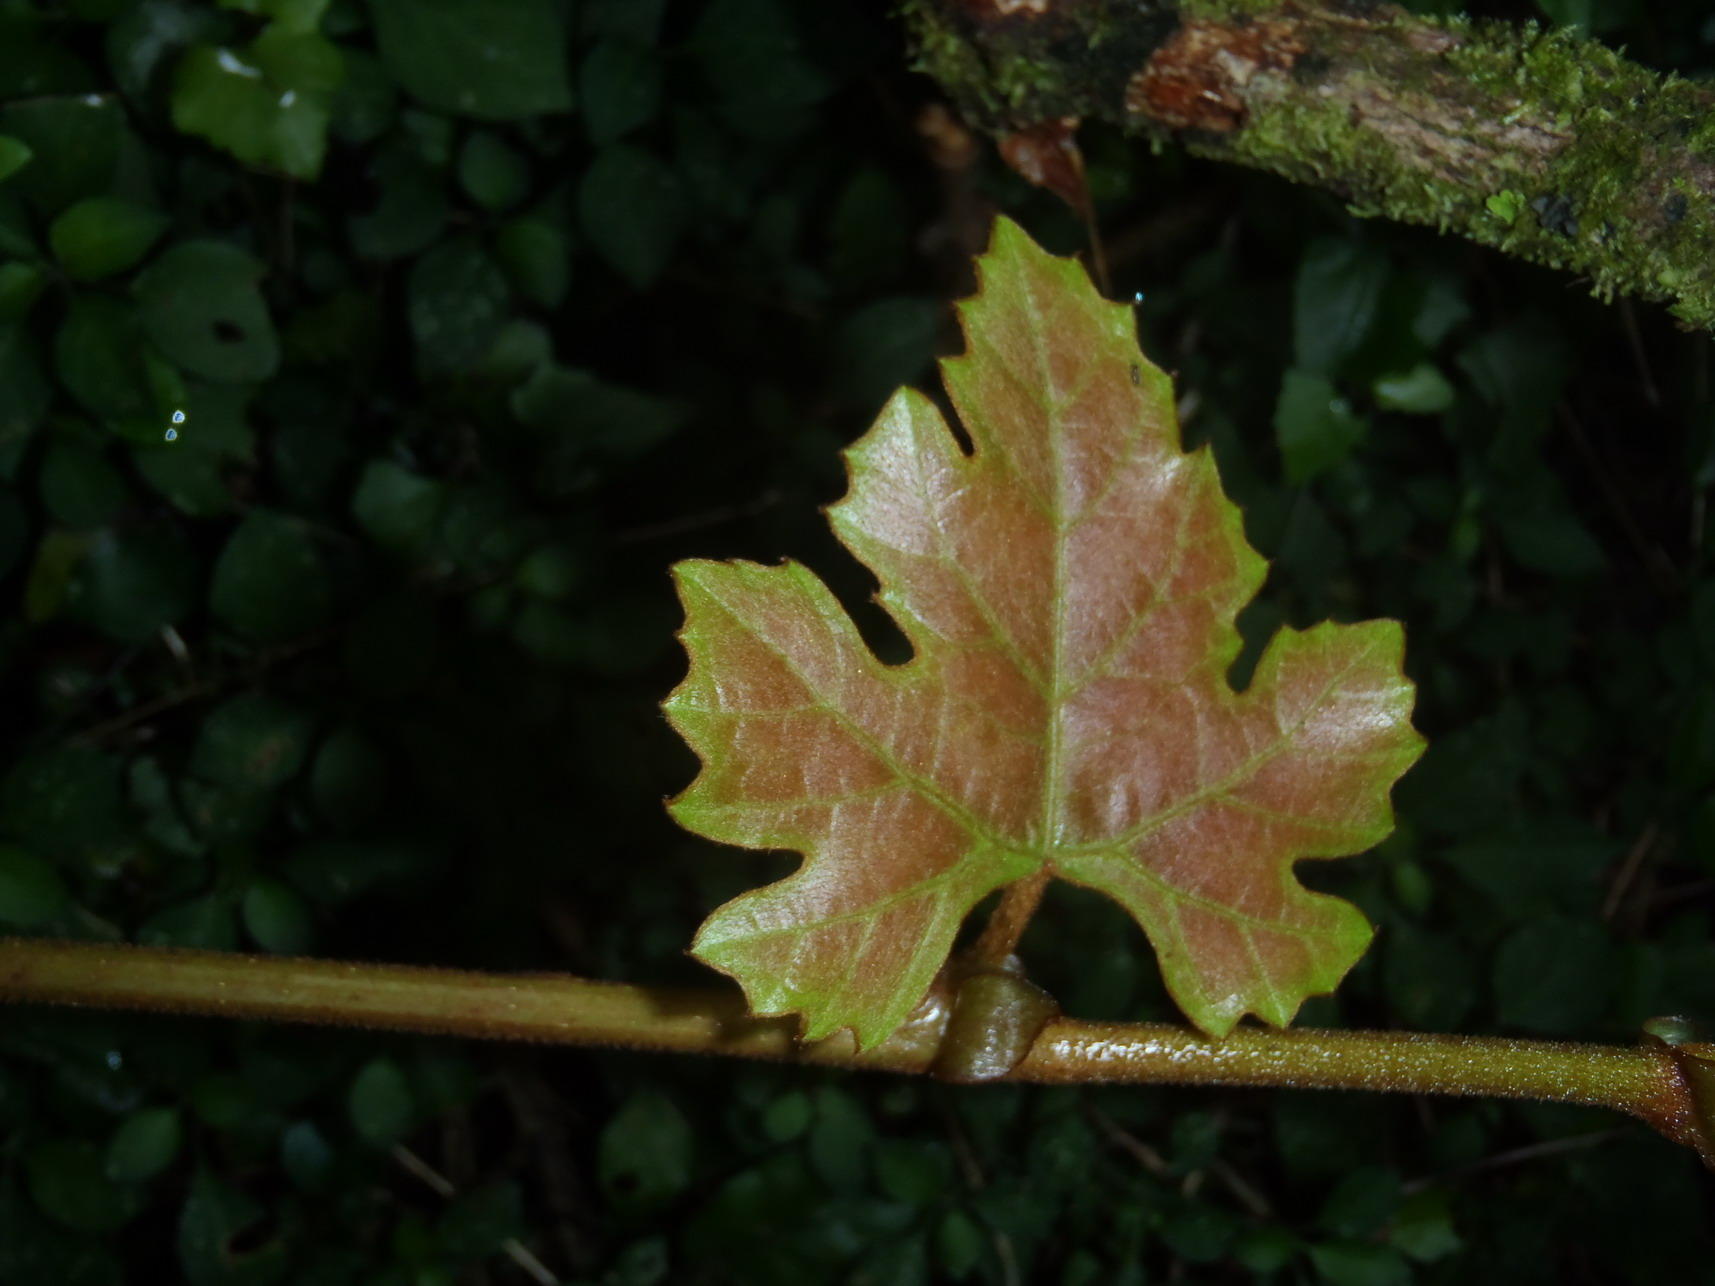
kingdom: Plantae
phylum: Tracheophyta
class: Magnoliopsida
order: Vitales
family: Vitaceae
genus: Rhoicissus
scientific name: Rhoicissus tomentosa
